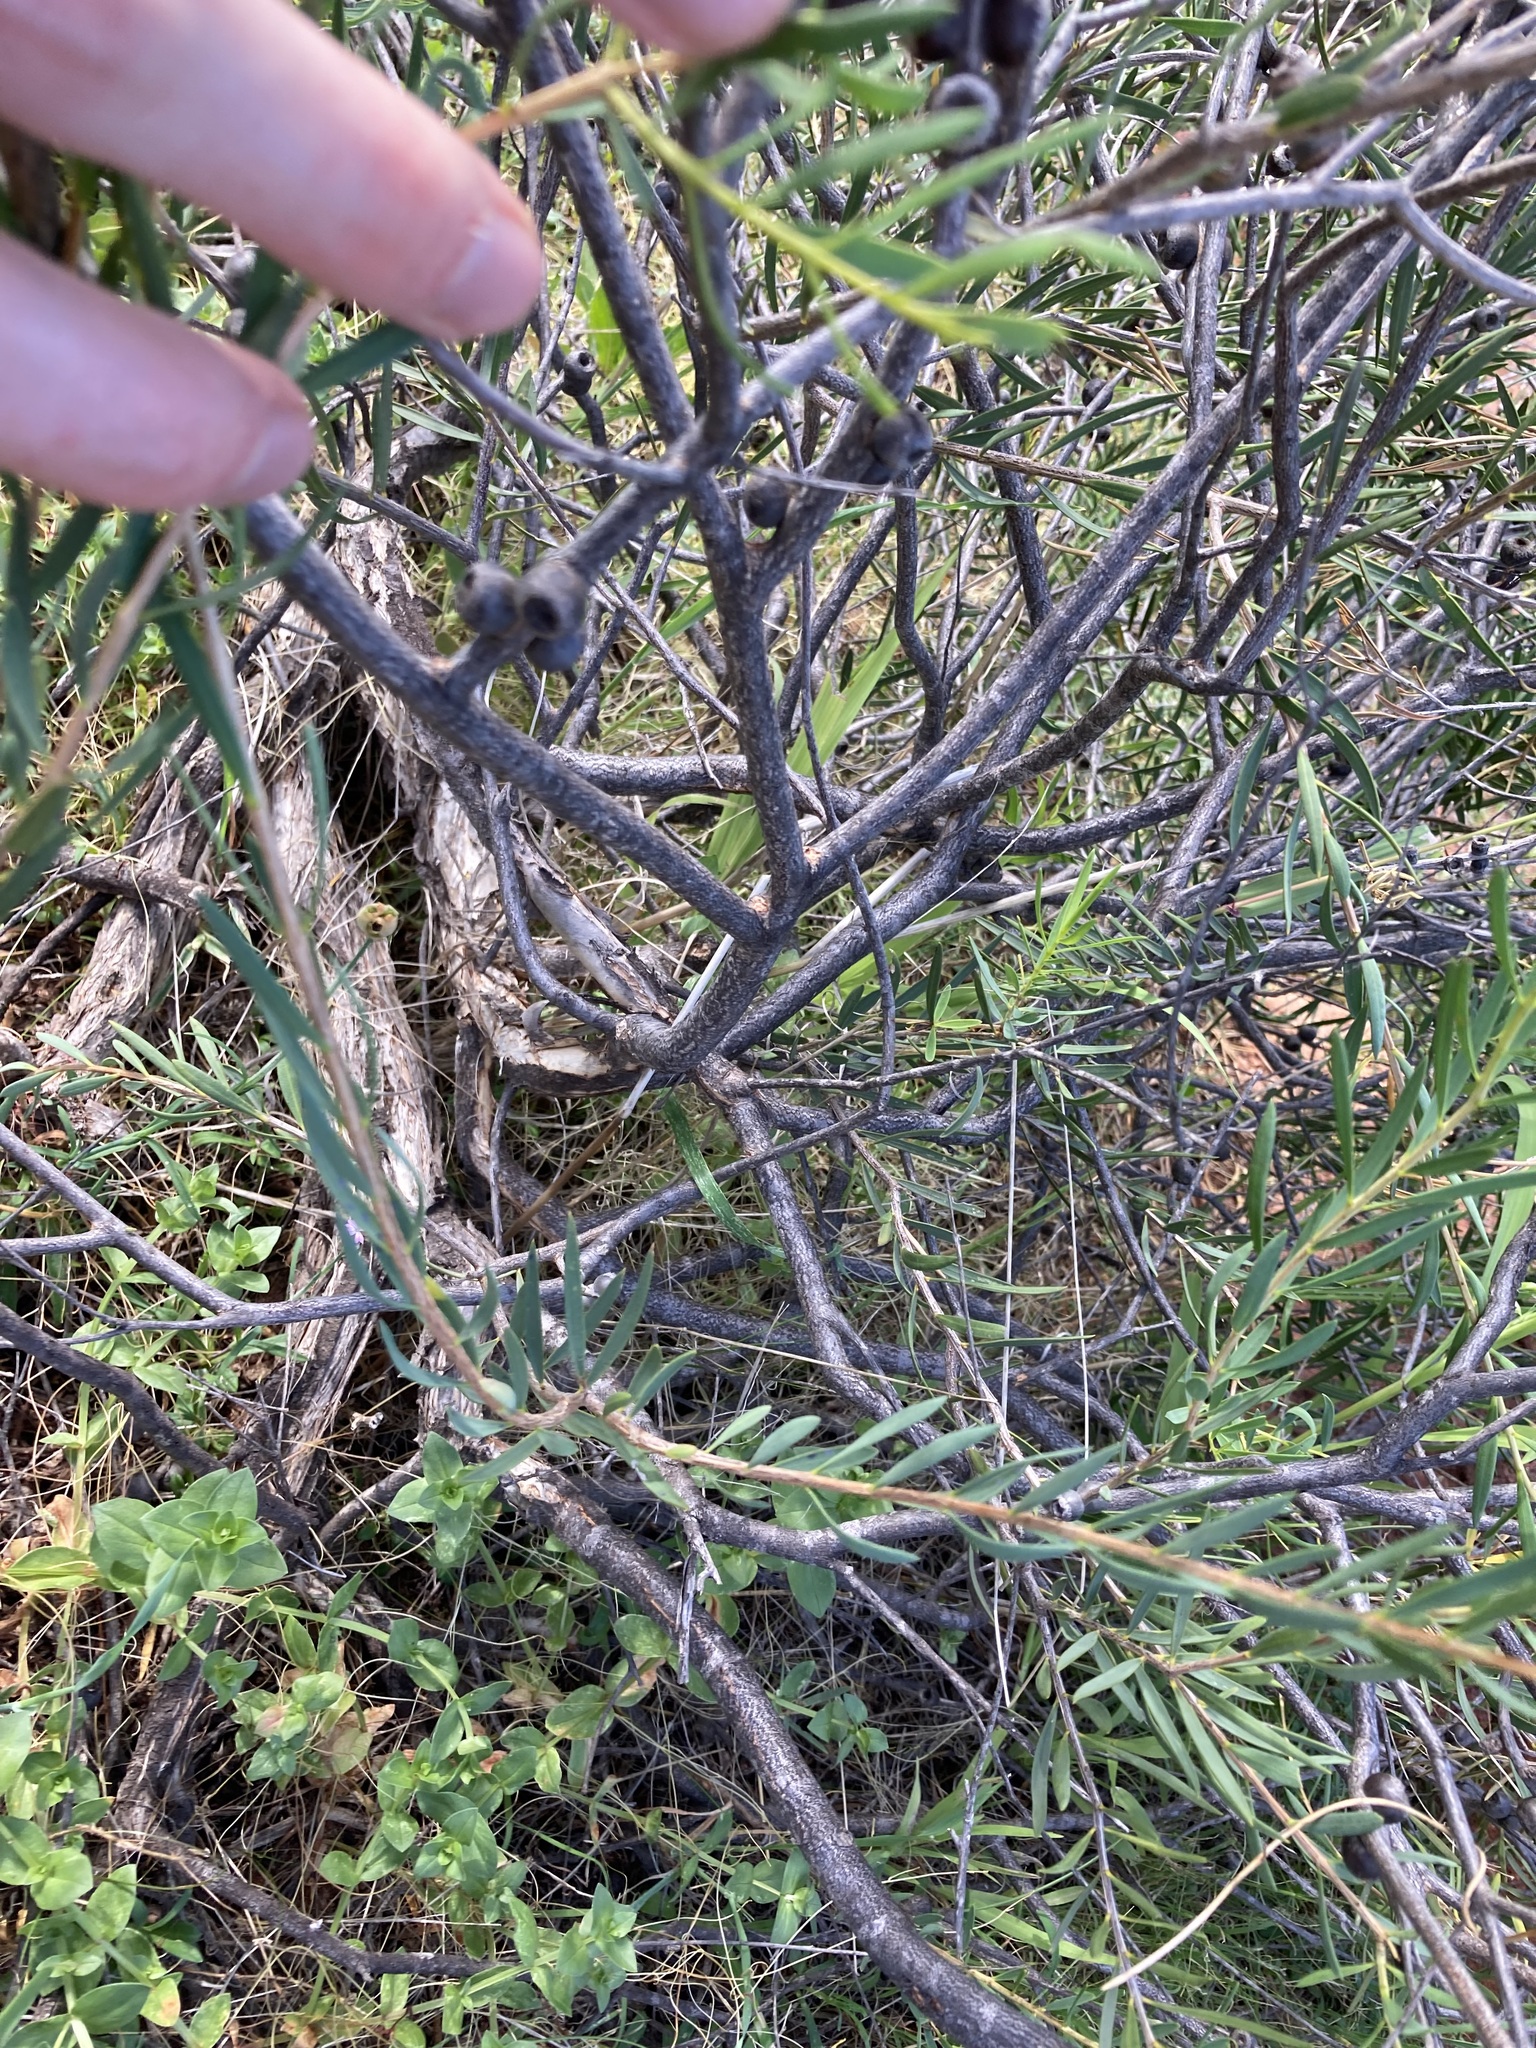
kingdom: Plantae
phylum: Tracheophyta
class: Magnoliopsida
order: Myrtales
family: Myrtaceae
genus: Melaleuca
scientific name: Melaleuca radula
